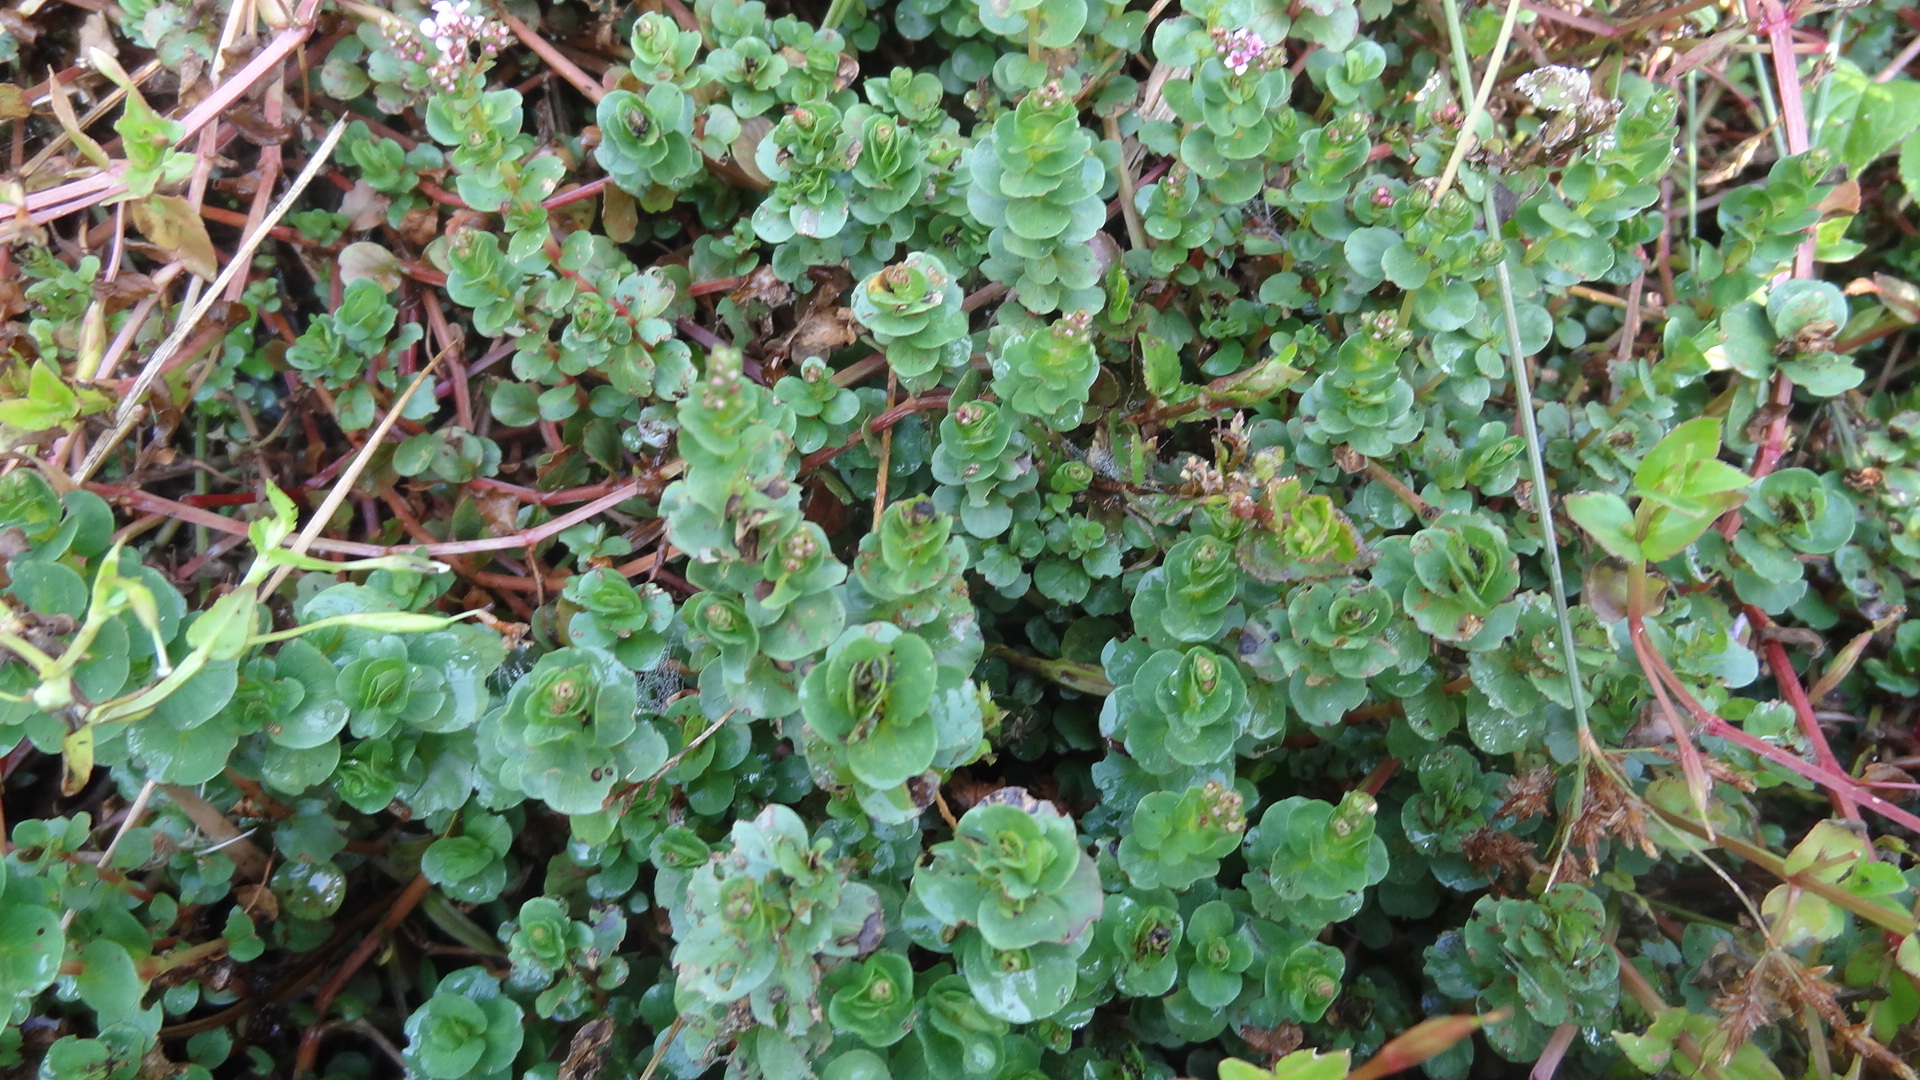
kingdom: Plantae
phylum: Tracheophyta
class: Magnoliopsida
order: Myrtales
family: Lythraceae
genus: Rotala
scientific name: Rotala rotundifolia
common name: Roundleaf toothcup
